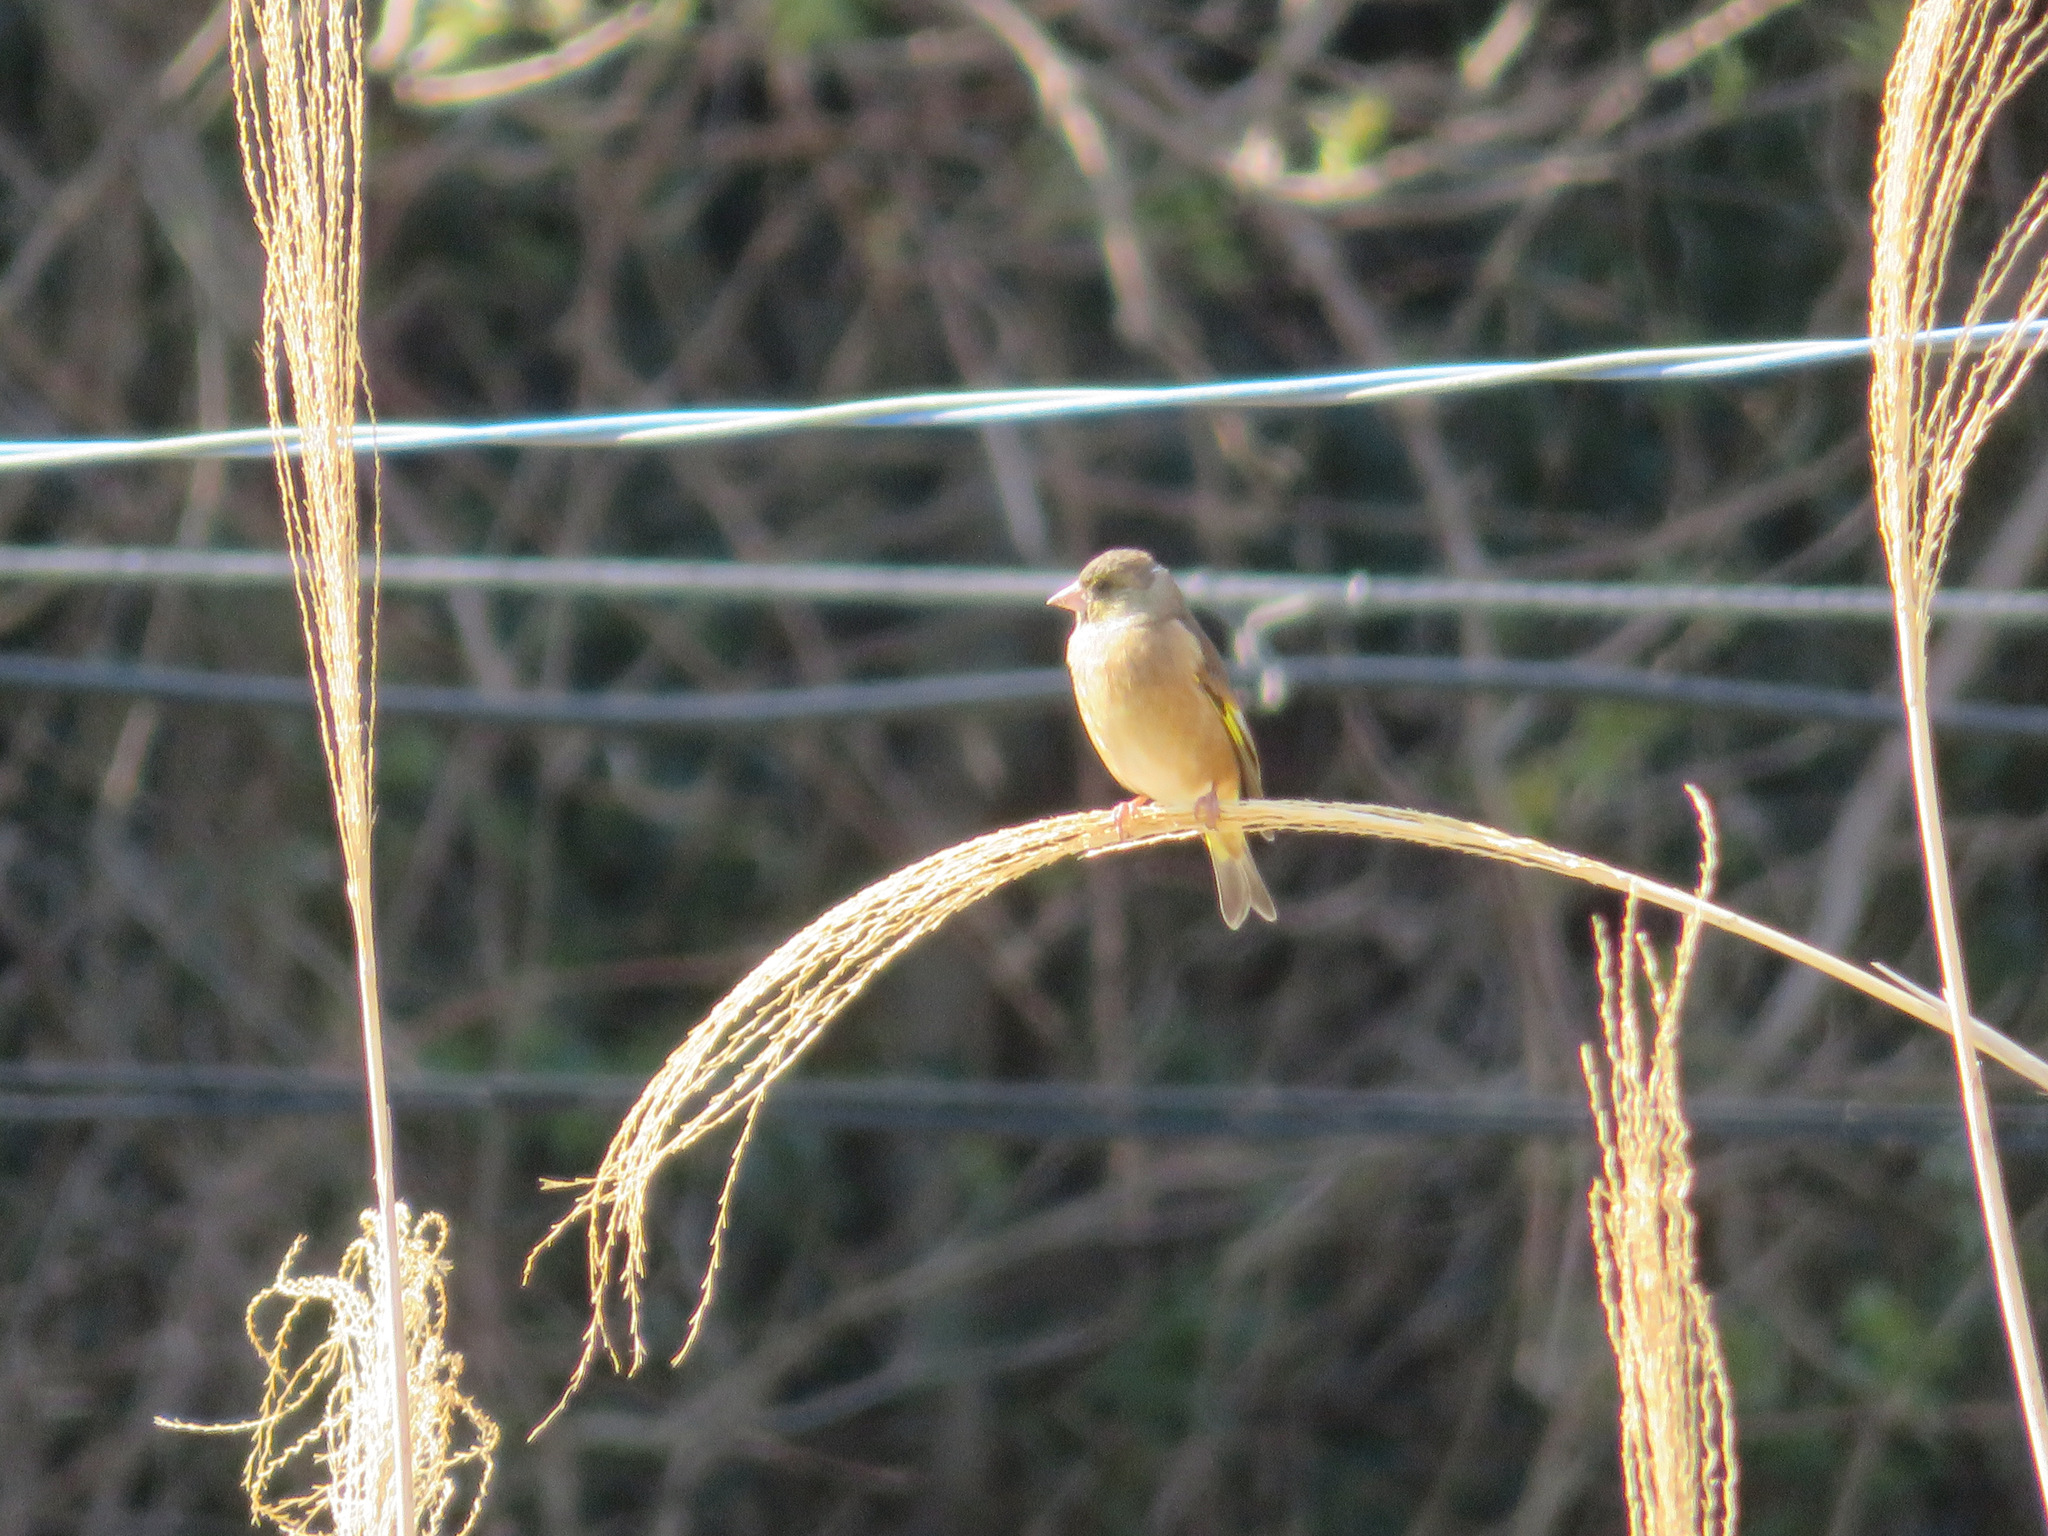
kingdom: Plantae
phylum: Tracheophyta
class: Liliopsida
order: Poales
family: Poaceae
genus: Chloris
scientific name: Chloris sinica
